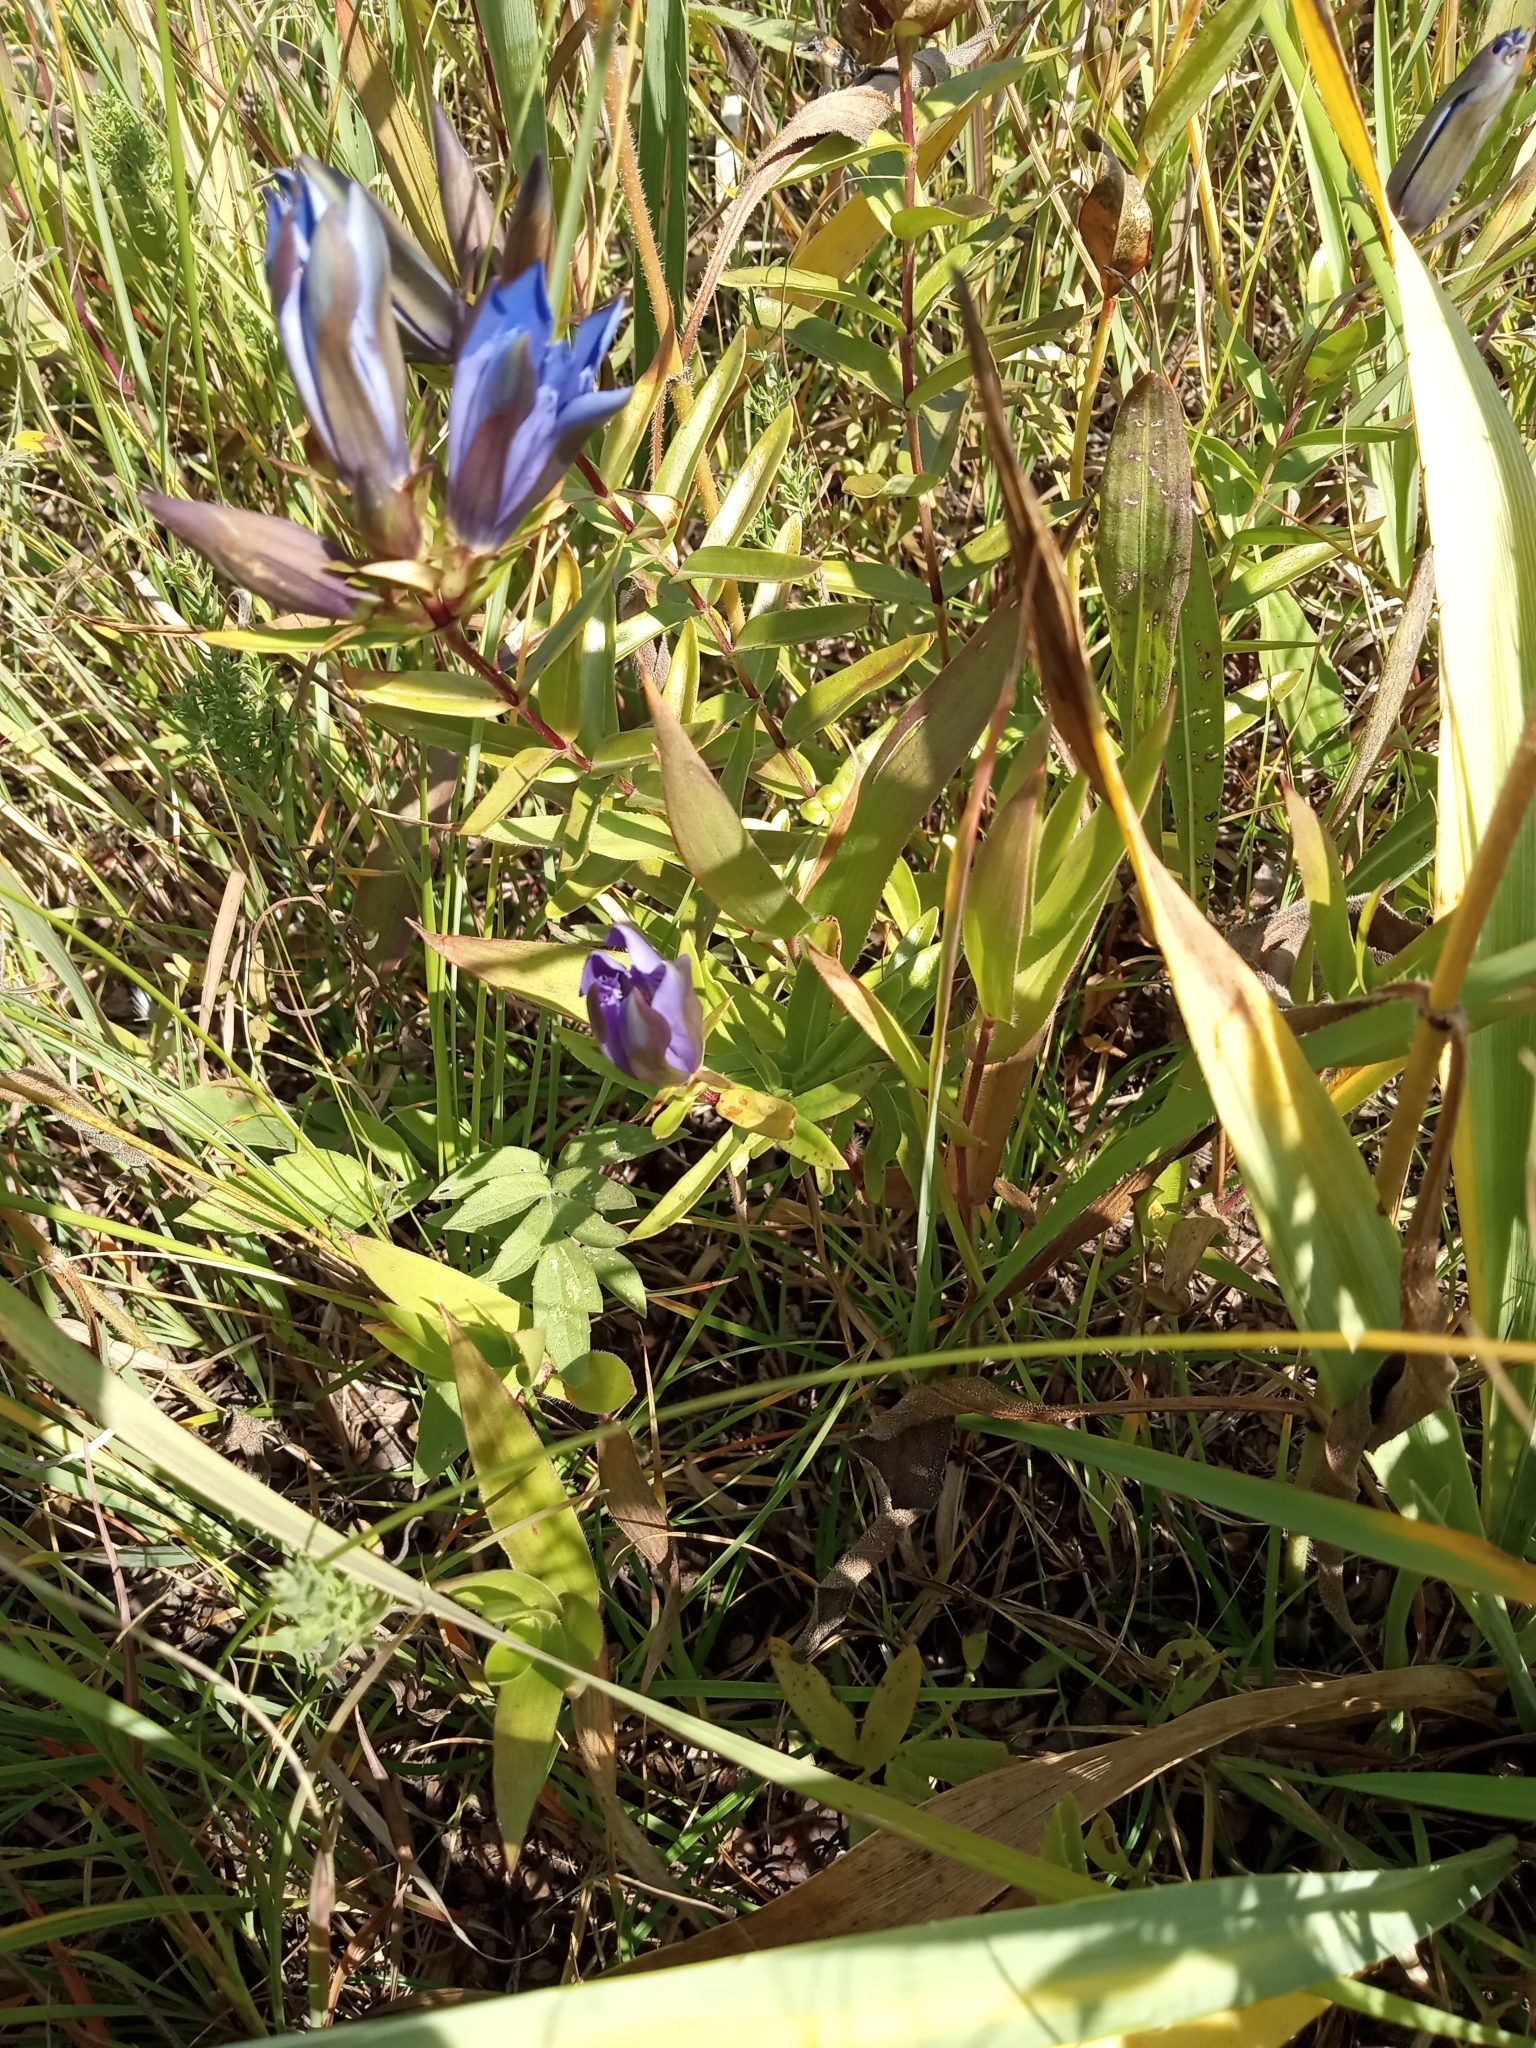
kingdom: Plantae
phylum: Tracheophyta
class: Magnoliopsida
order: Gentianales
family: Gentianaceae
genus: Gentiana
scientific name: Gentiana puberulenta
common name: Downy gentian
